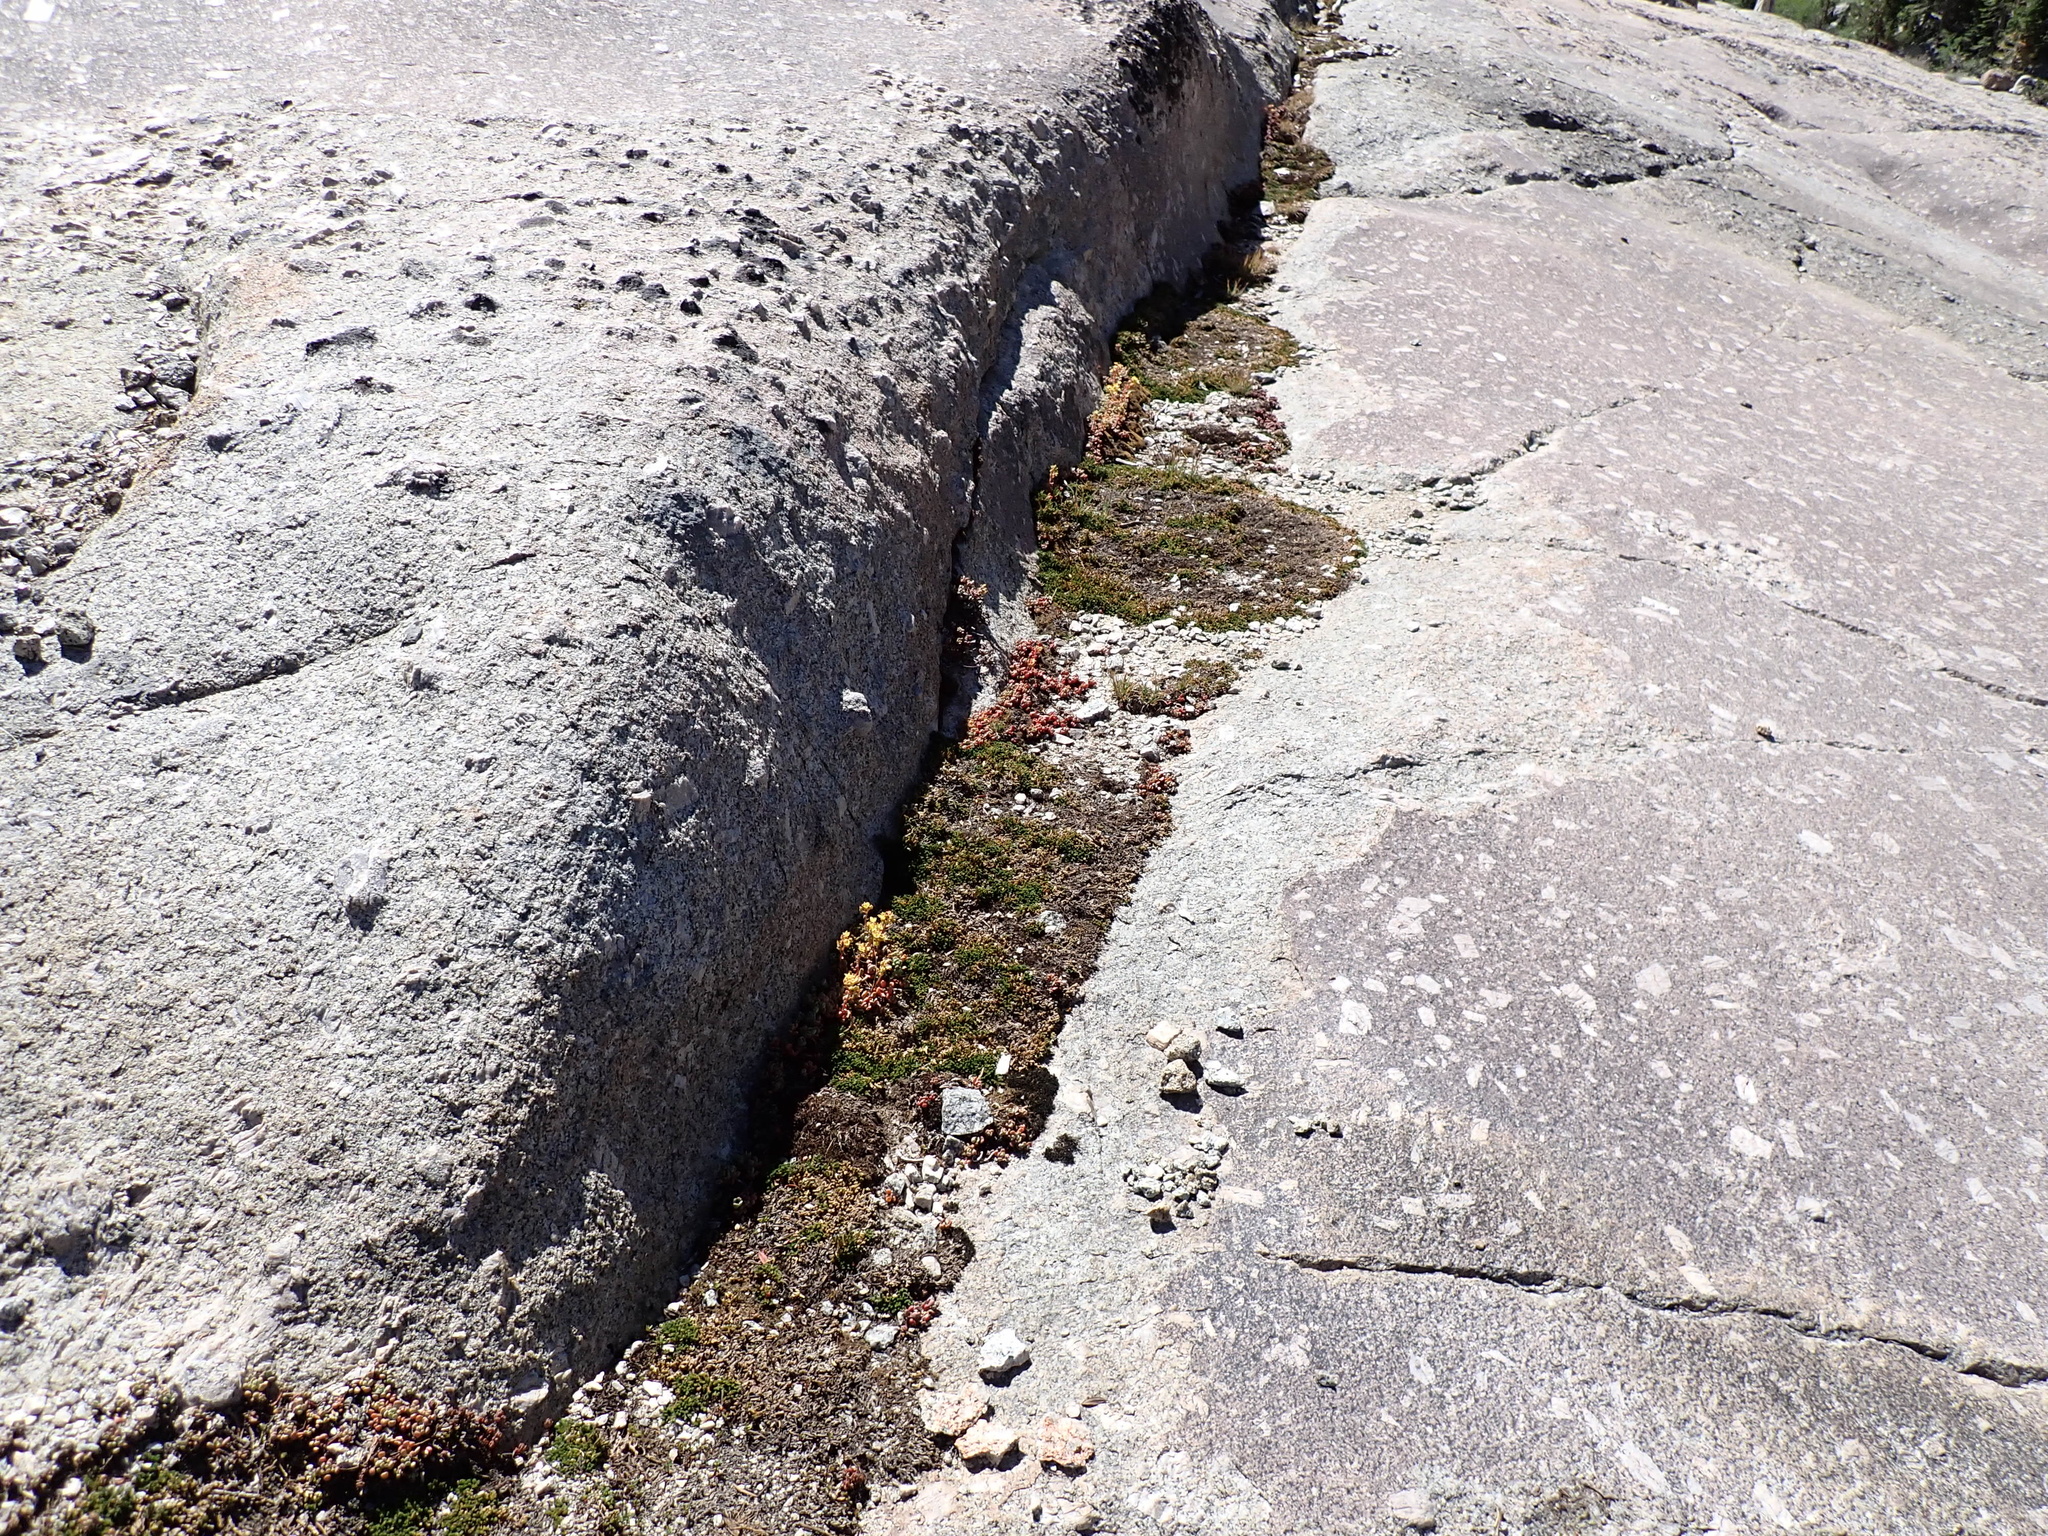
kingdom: Plantae
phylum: Tracheophyta
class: Lycopodiopsida
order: Selaginellales
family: Selaginellaceae
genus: Selaginella
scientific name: Selaginella watsonii
